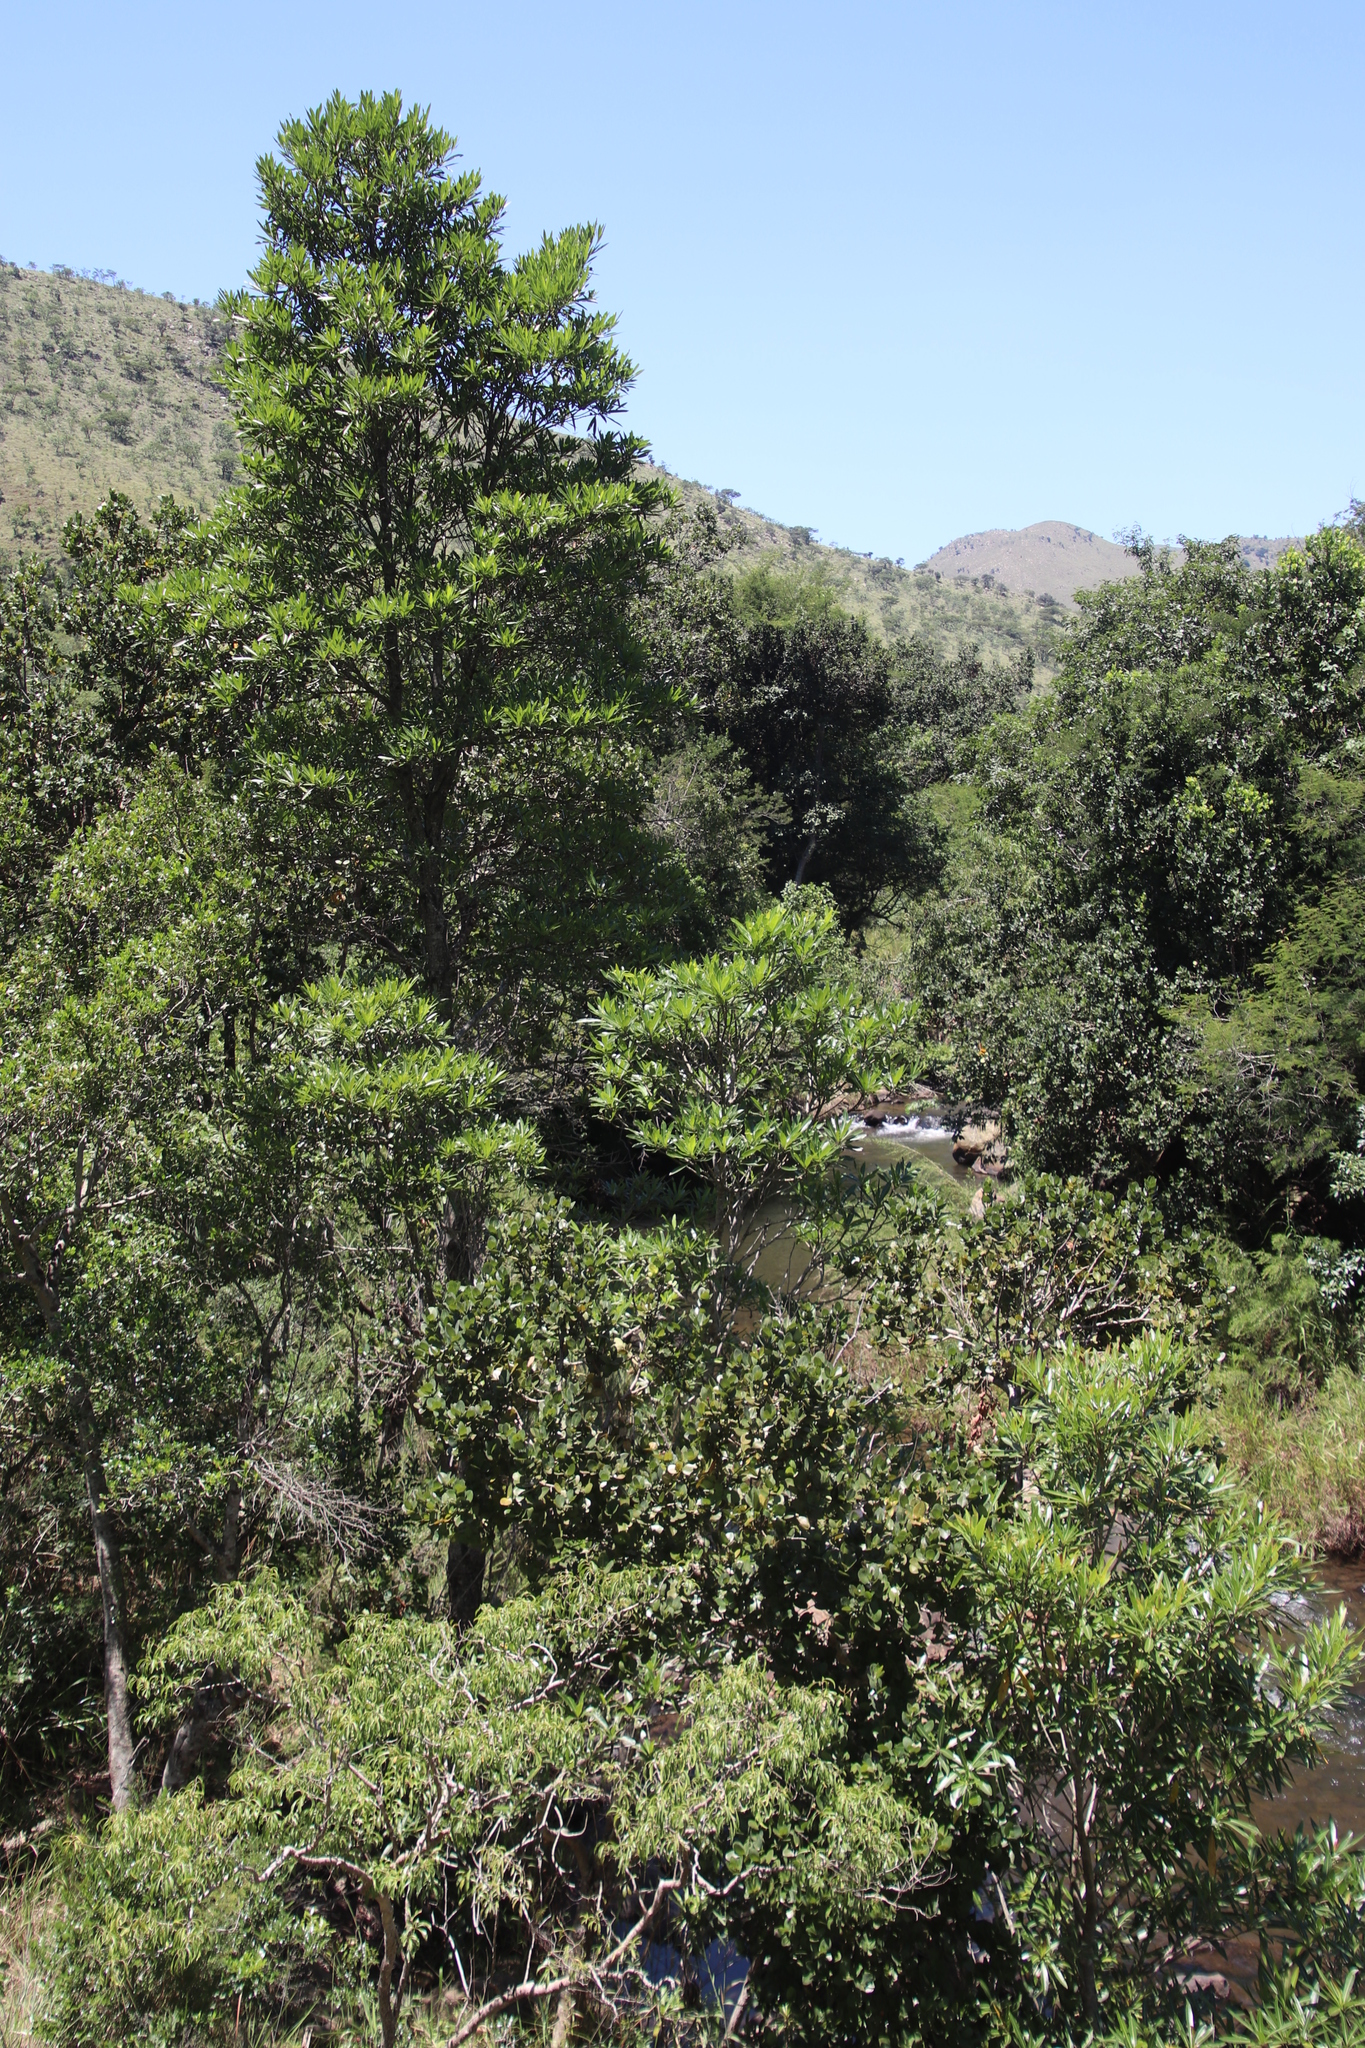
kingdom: Plantae
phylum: Tracheophyta
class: Magnoliopsida
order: Gentianales
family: Rubiaceae
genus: Breonadia
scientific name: Breonadia salicina
